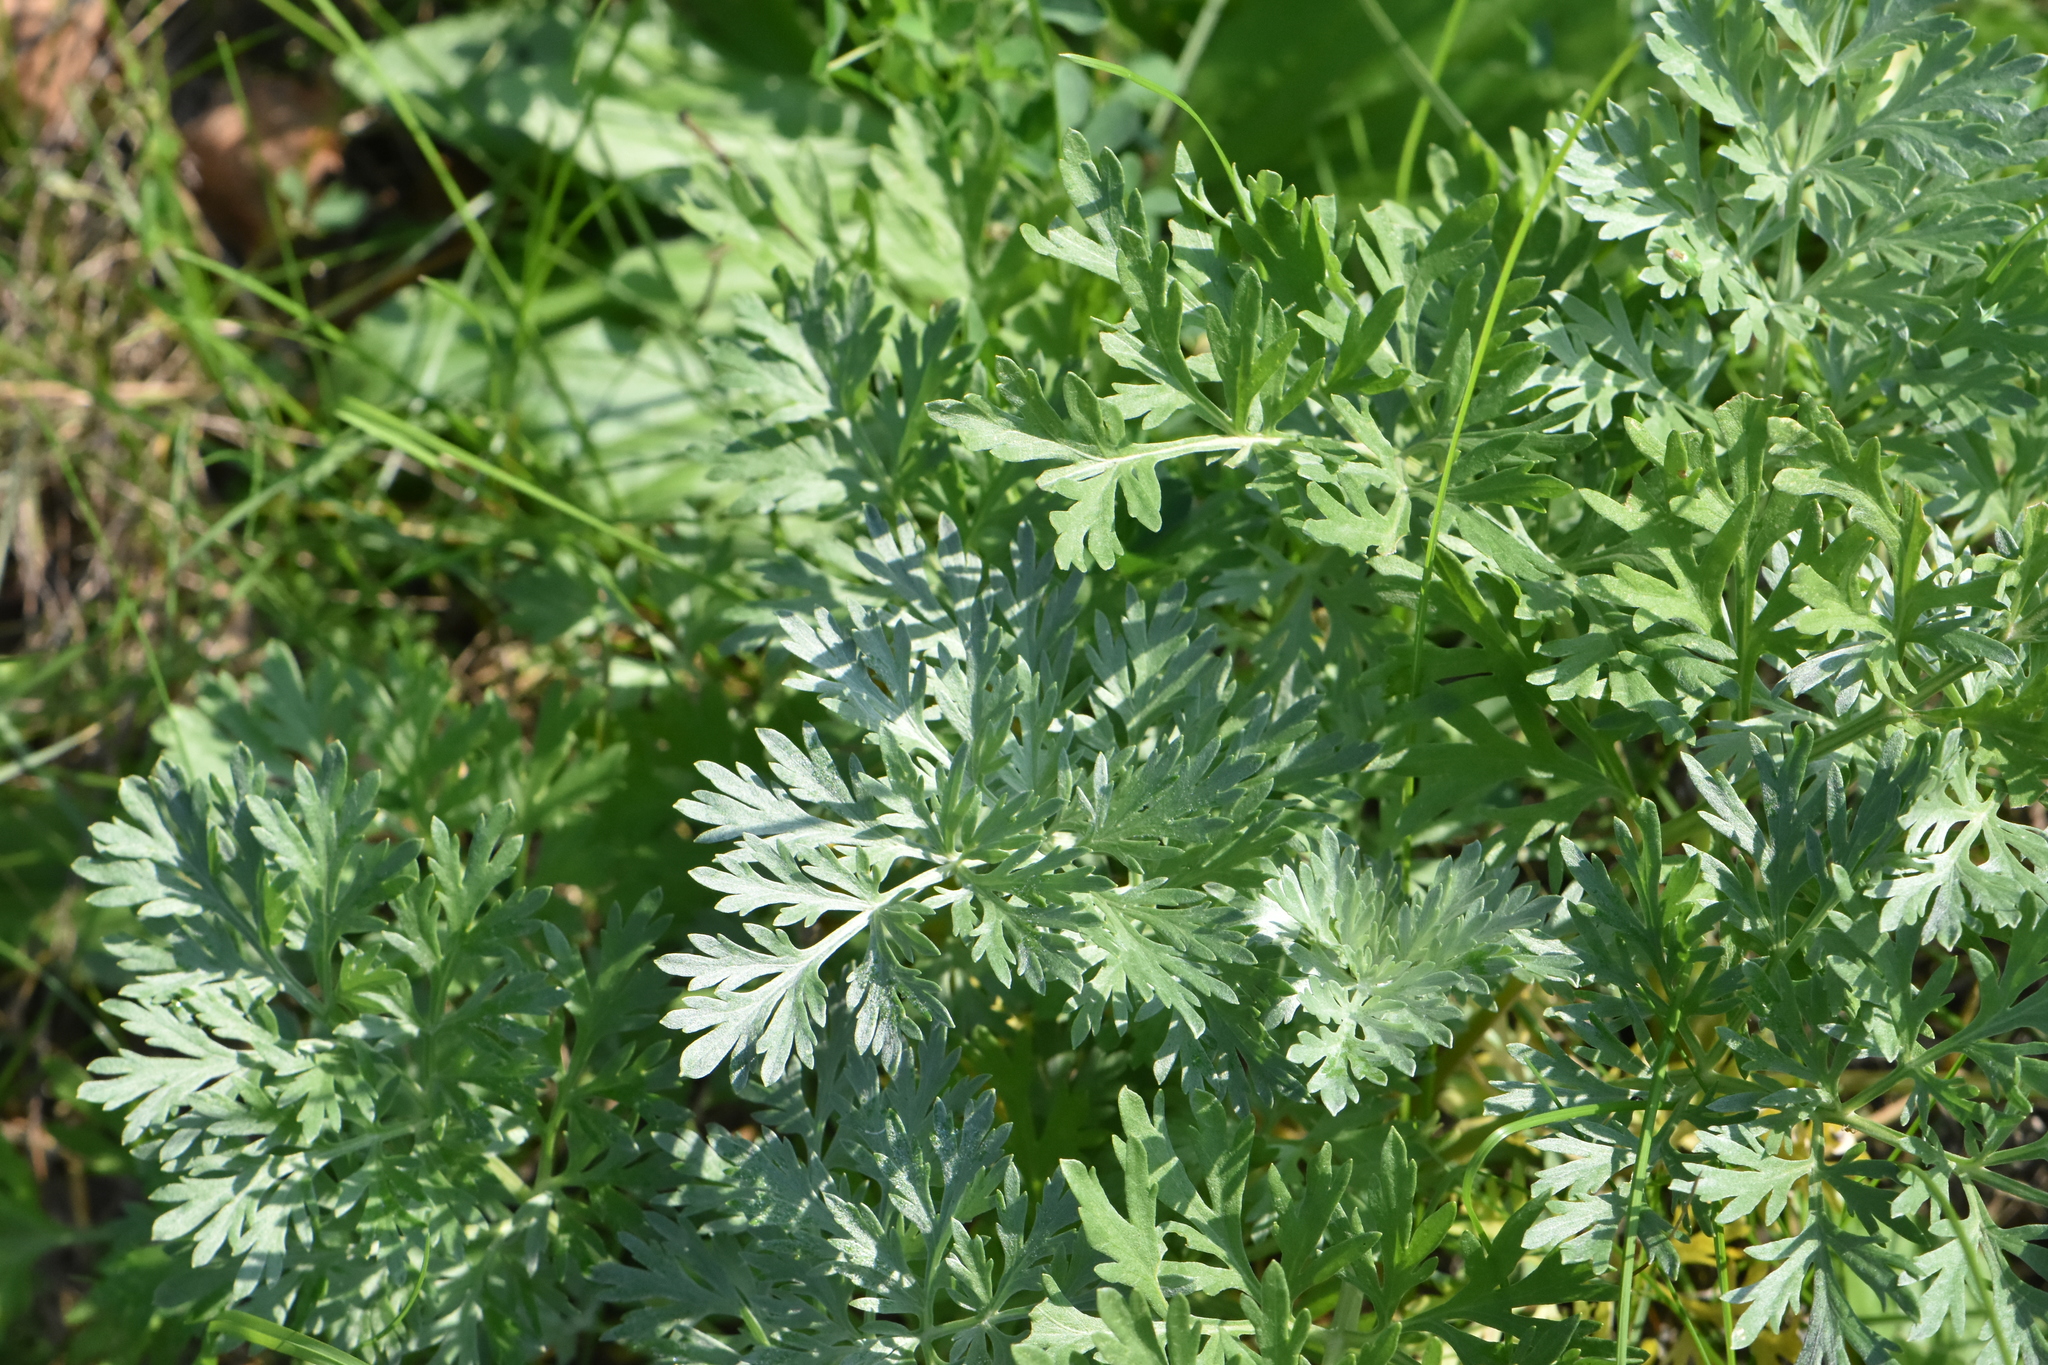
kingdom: Plantae
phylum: Tracheophyta
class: Magnoliopsida
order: Asterales
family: Asteraceae
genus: Artemisia
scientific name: Artemisia absinthium
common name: Wormwood
